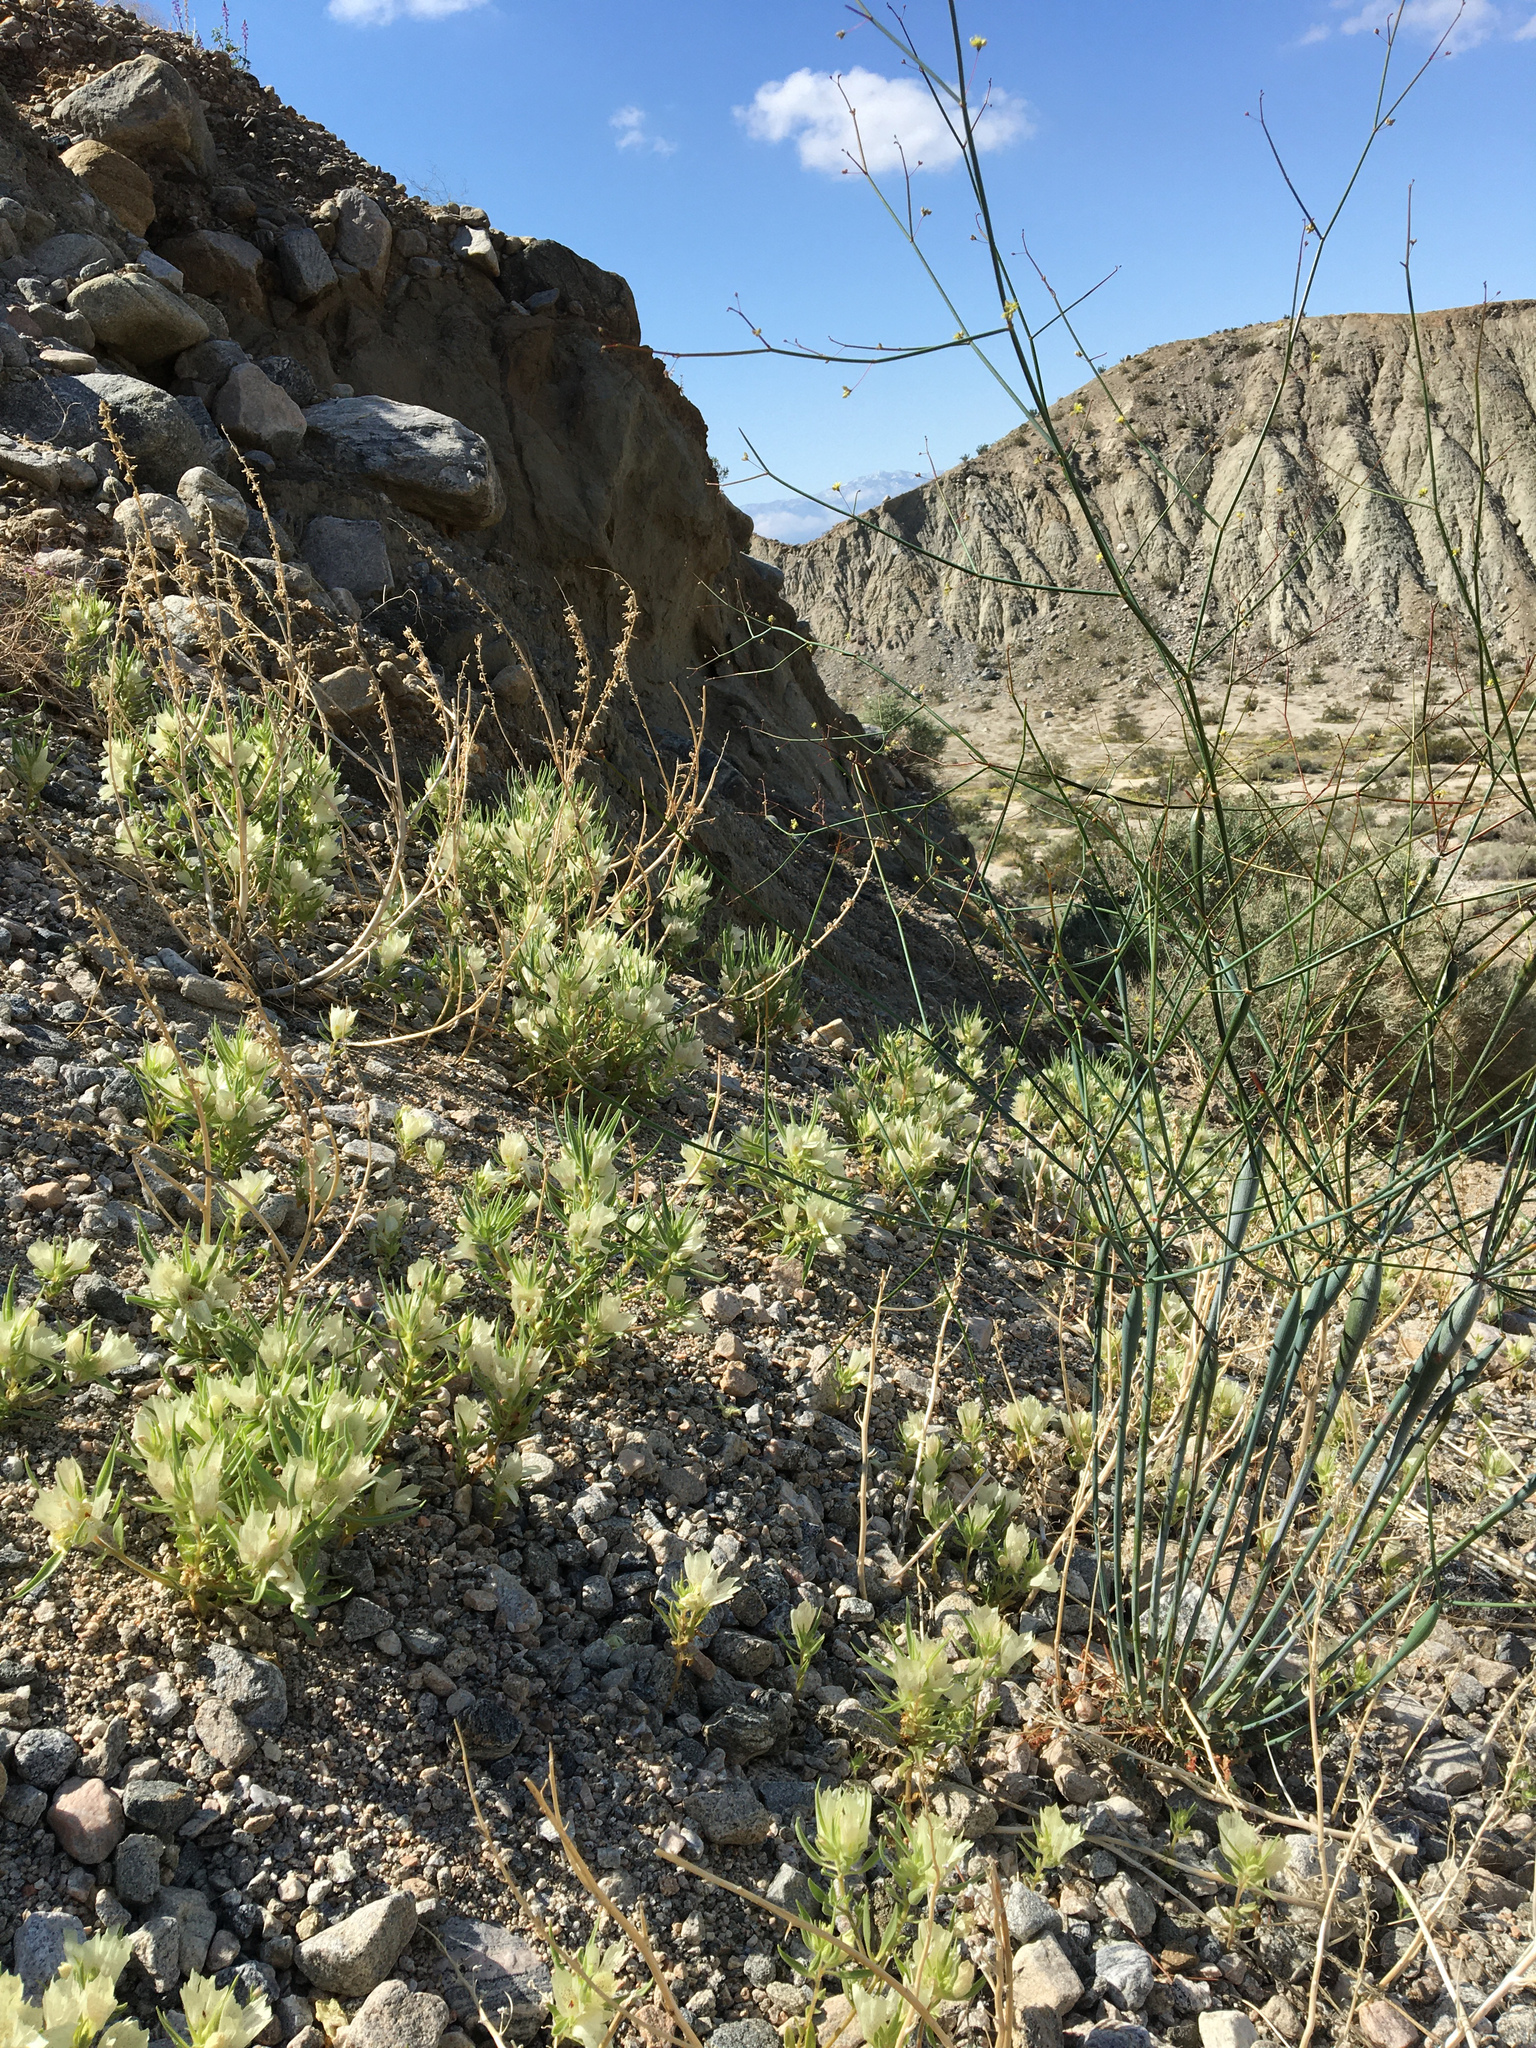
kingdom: Plantae
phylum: Tracheophyta
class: Magnoliopsida
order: Lamiales
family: Plantaginaceae
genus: Mohavea
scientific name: Mohavea confertiflora
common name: Ghost flower
